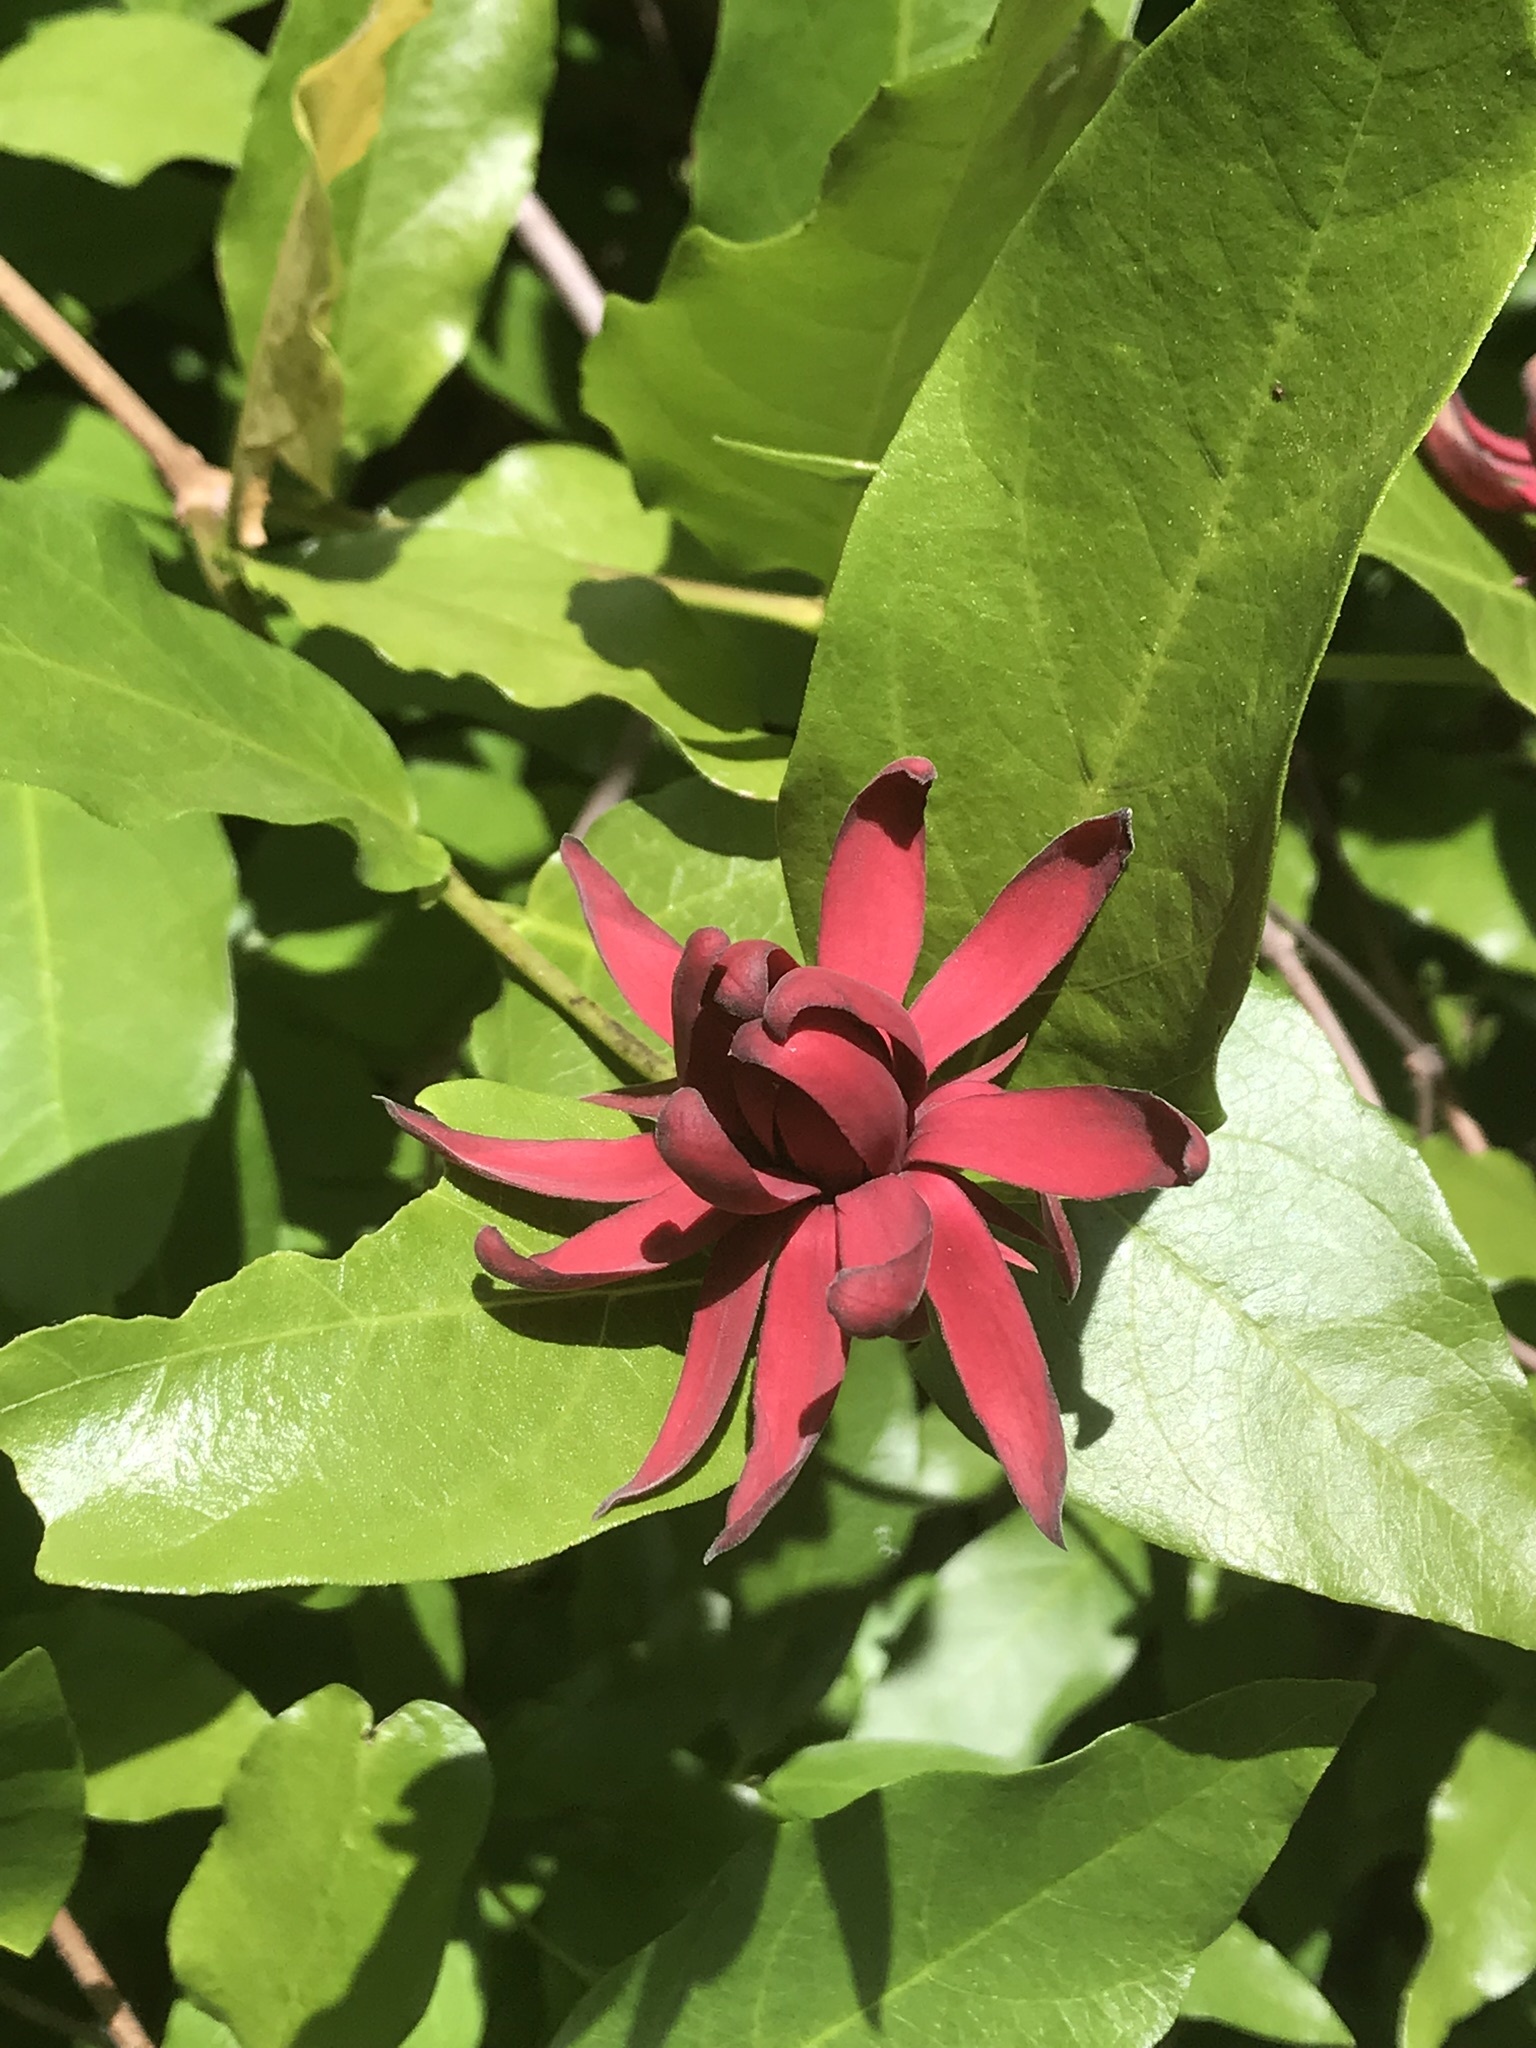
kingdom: Plantae
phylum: Tracheophyta
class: Magnoliopsida
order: Laurales
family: Calycanthaceae
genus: Calycanthus
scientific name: Calycanthus occidentalis
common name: California spicebush
